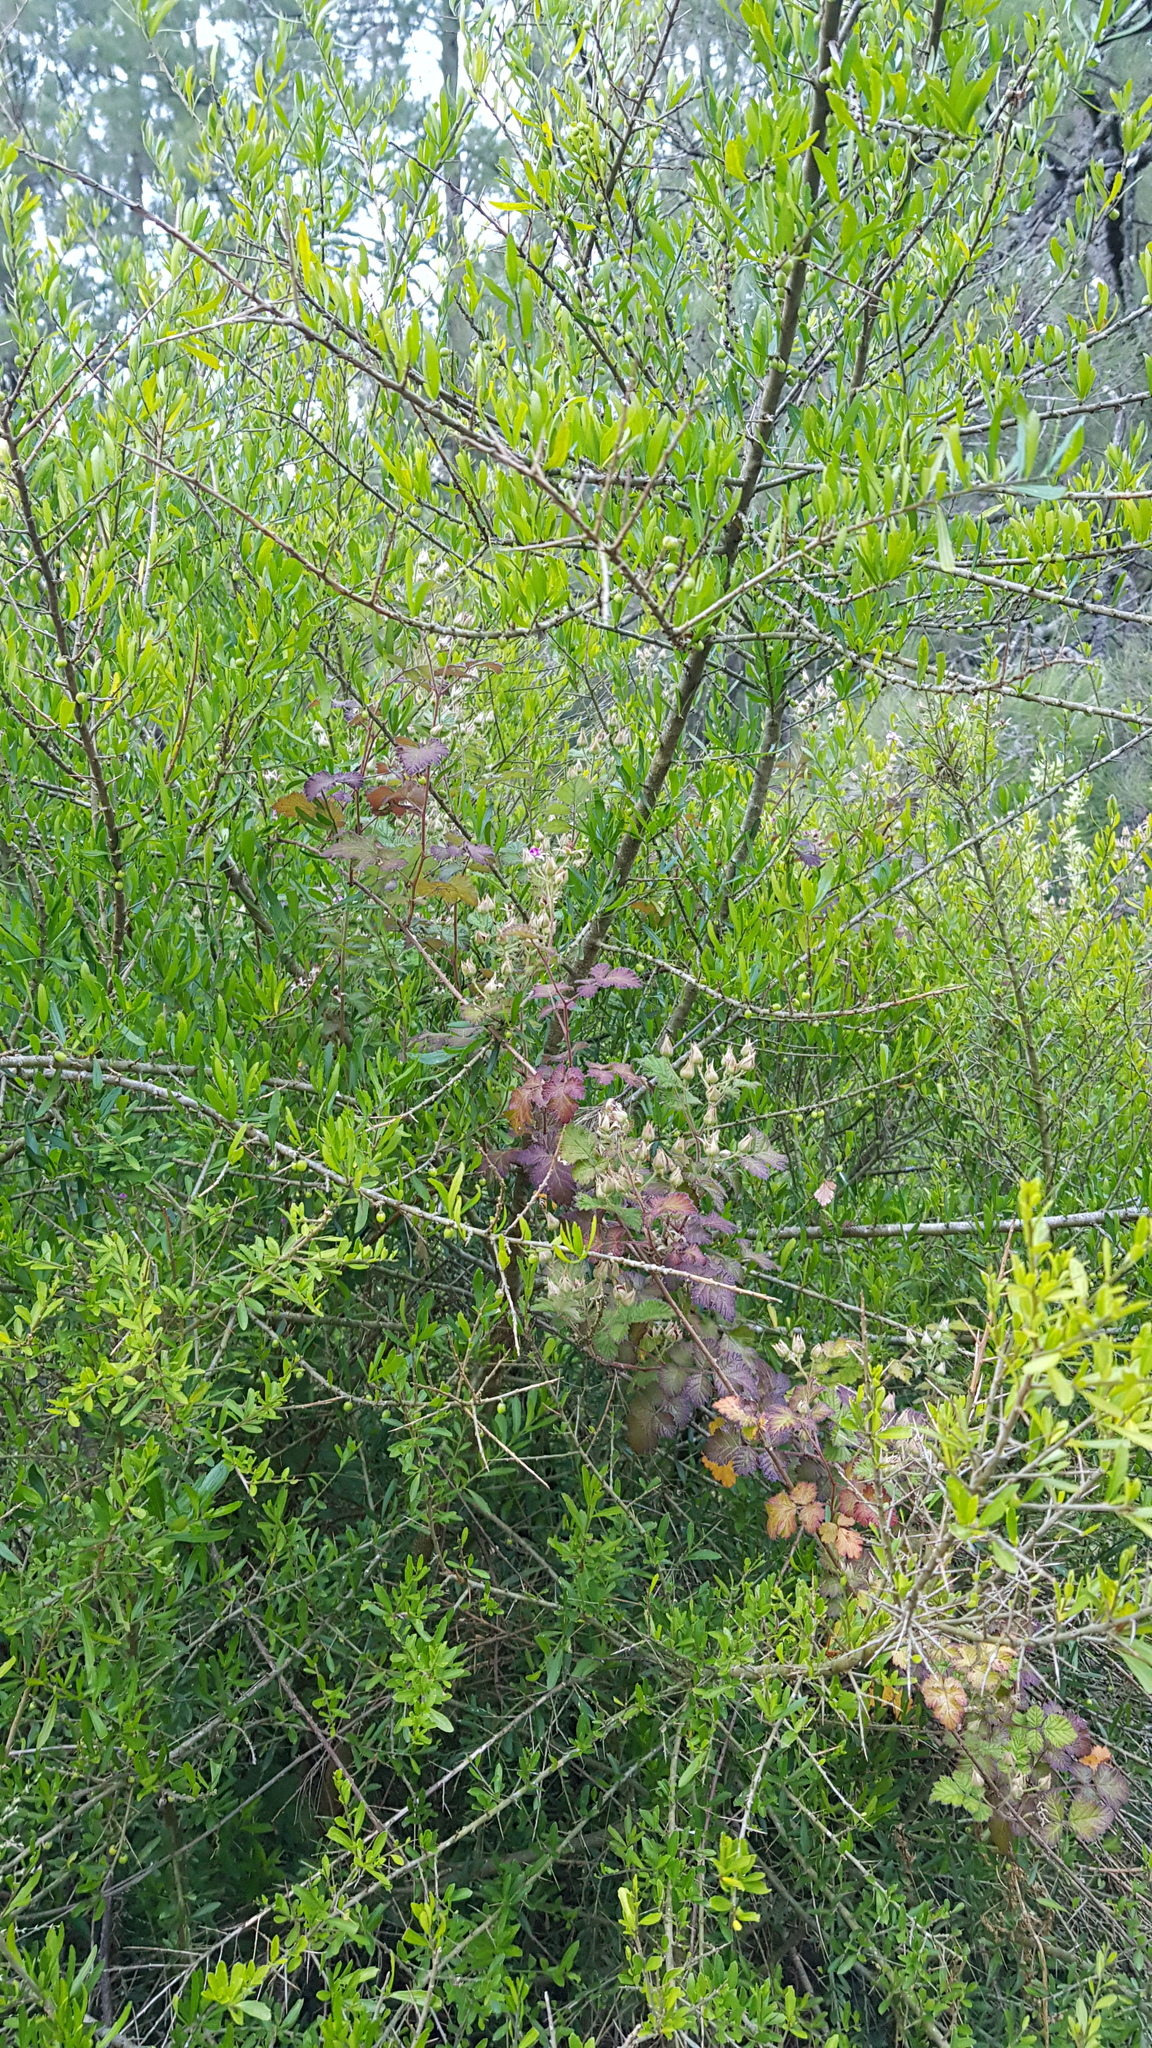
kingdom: Plantae
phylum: Tracheophyta
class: Magnoliopsida
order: Rosales
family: Rosaceae
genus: Rubus
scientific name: Rubus parvifolius
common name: Threeleaf blackberry
